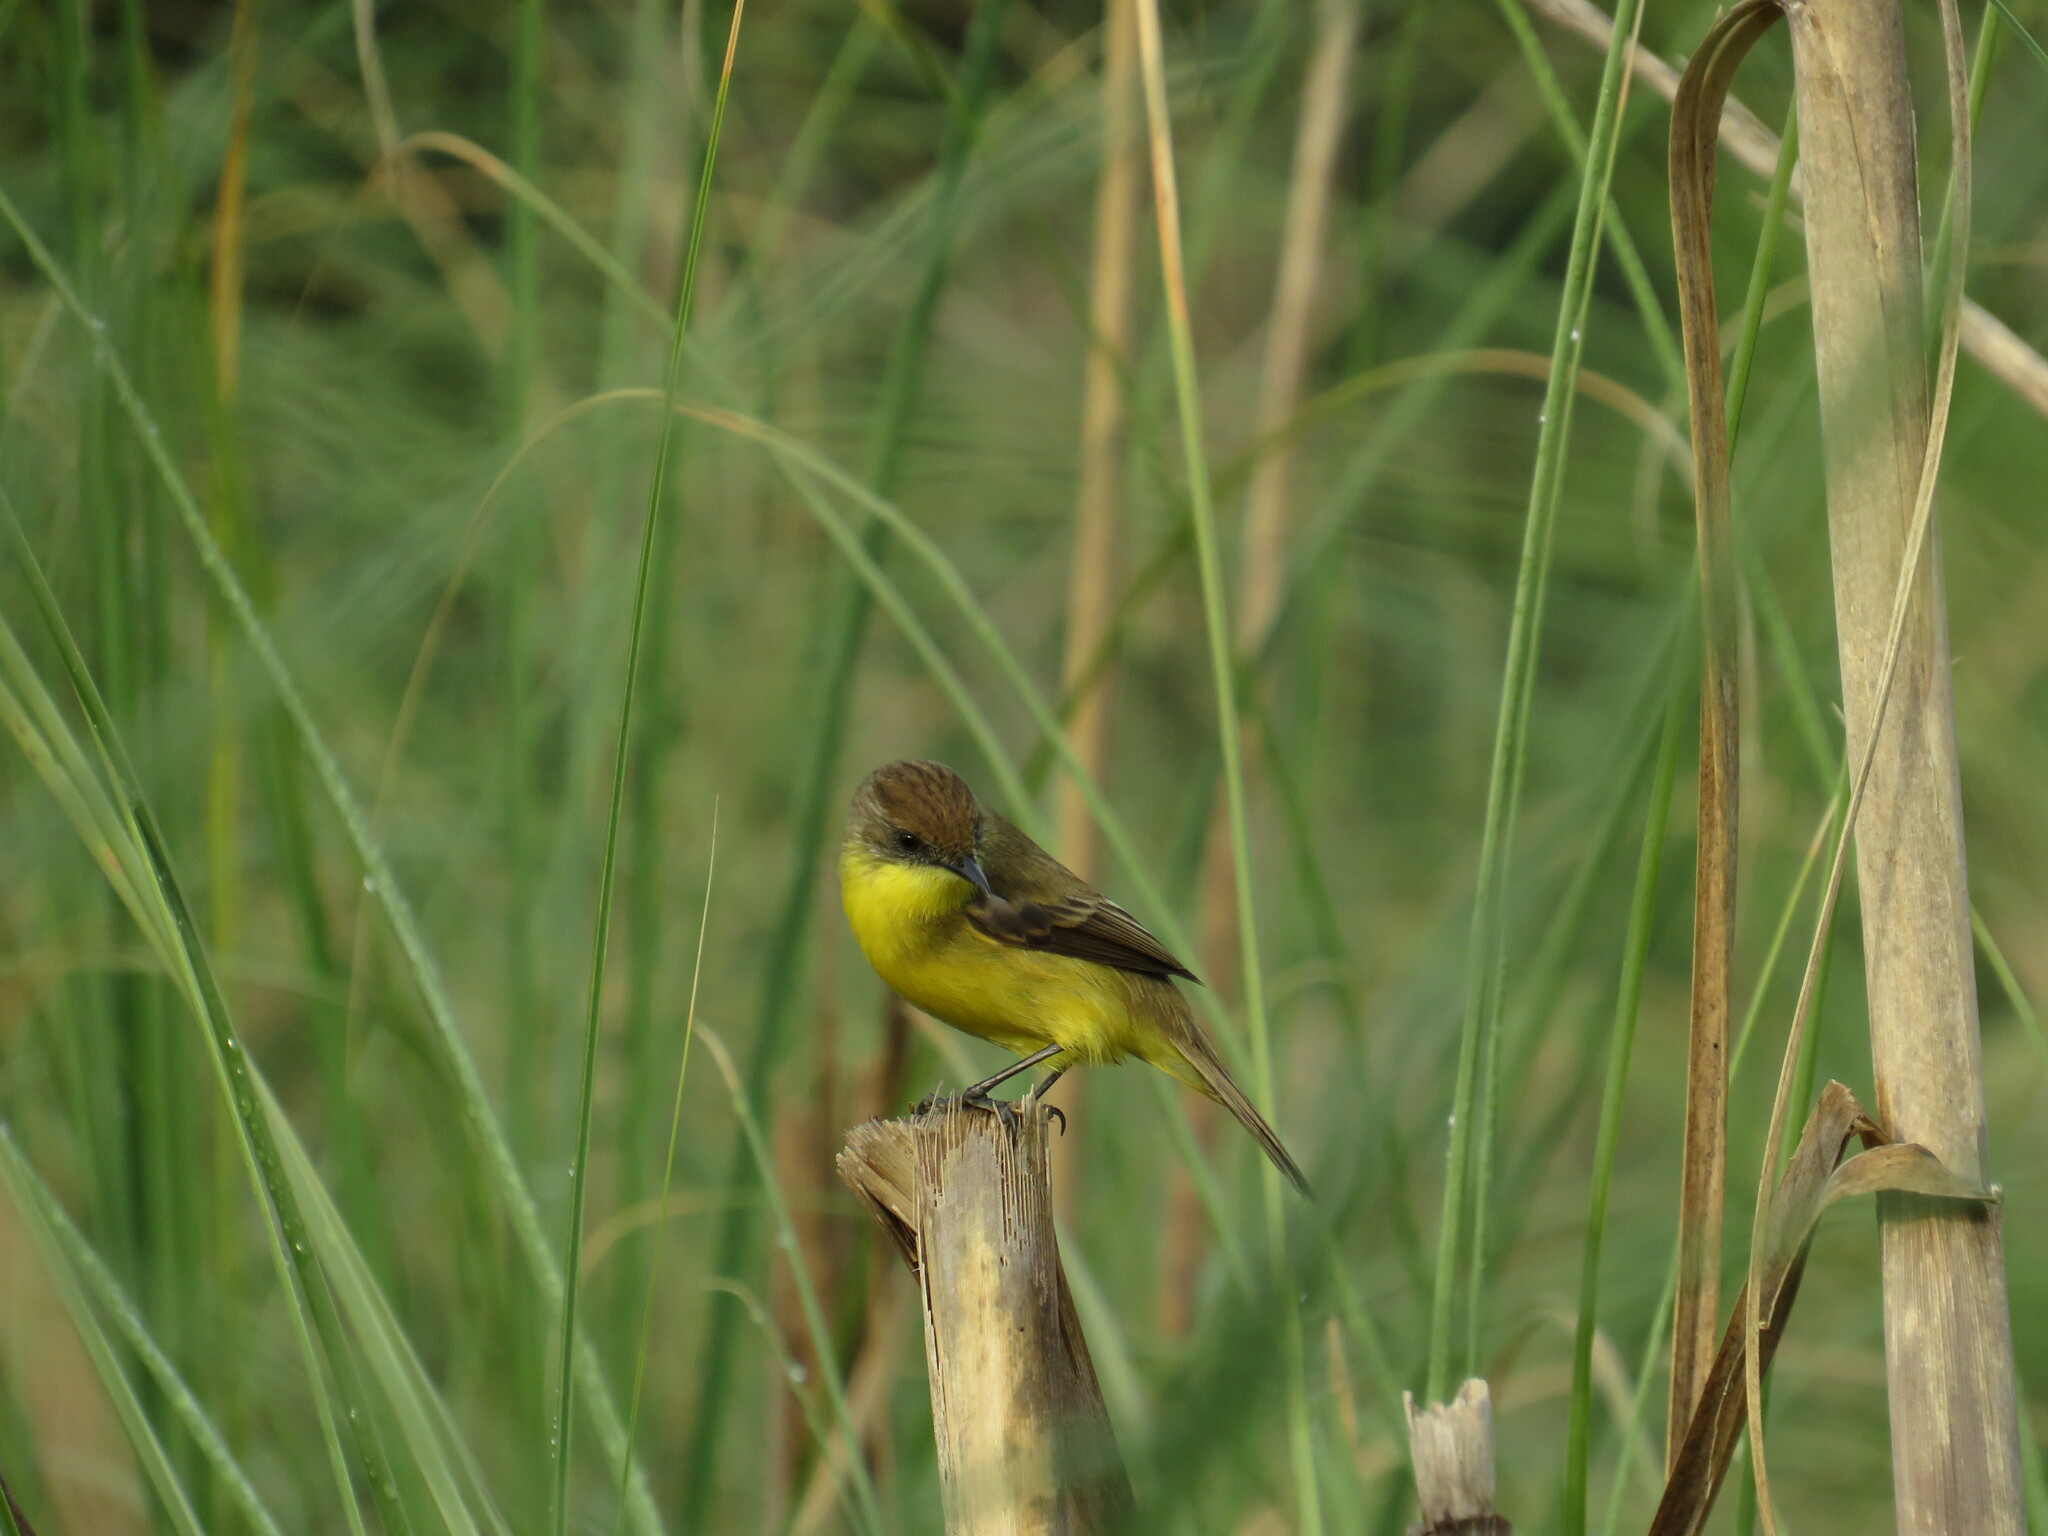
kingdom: Animalia
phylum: Chordata
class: Aves
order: Passeriformes
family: Tyrannidae
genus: Pseudocolopteryx
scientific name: Pseudocolopteryx flaviventris
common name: Warbling doradito
